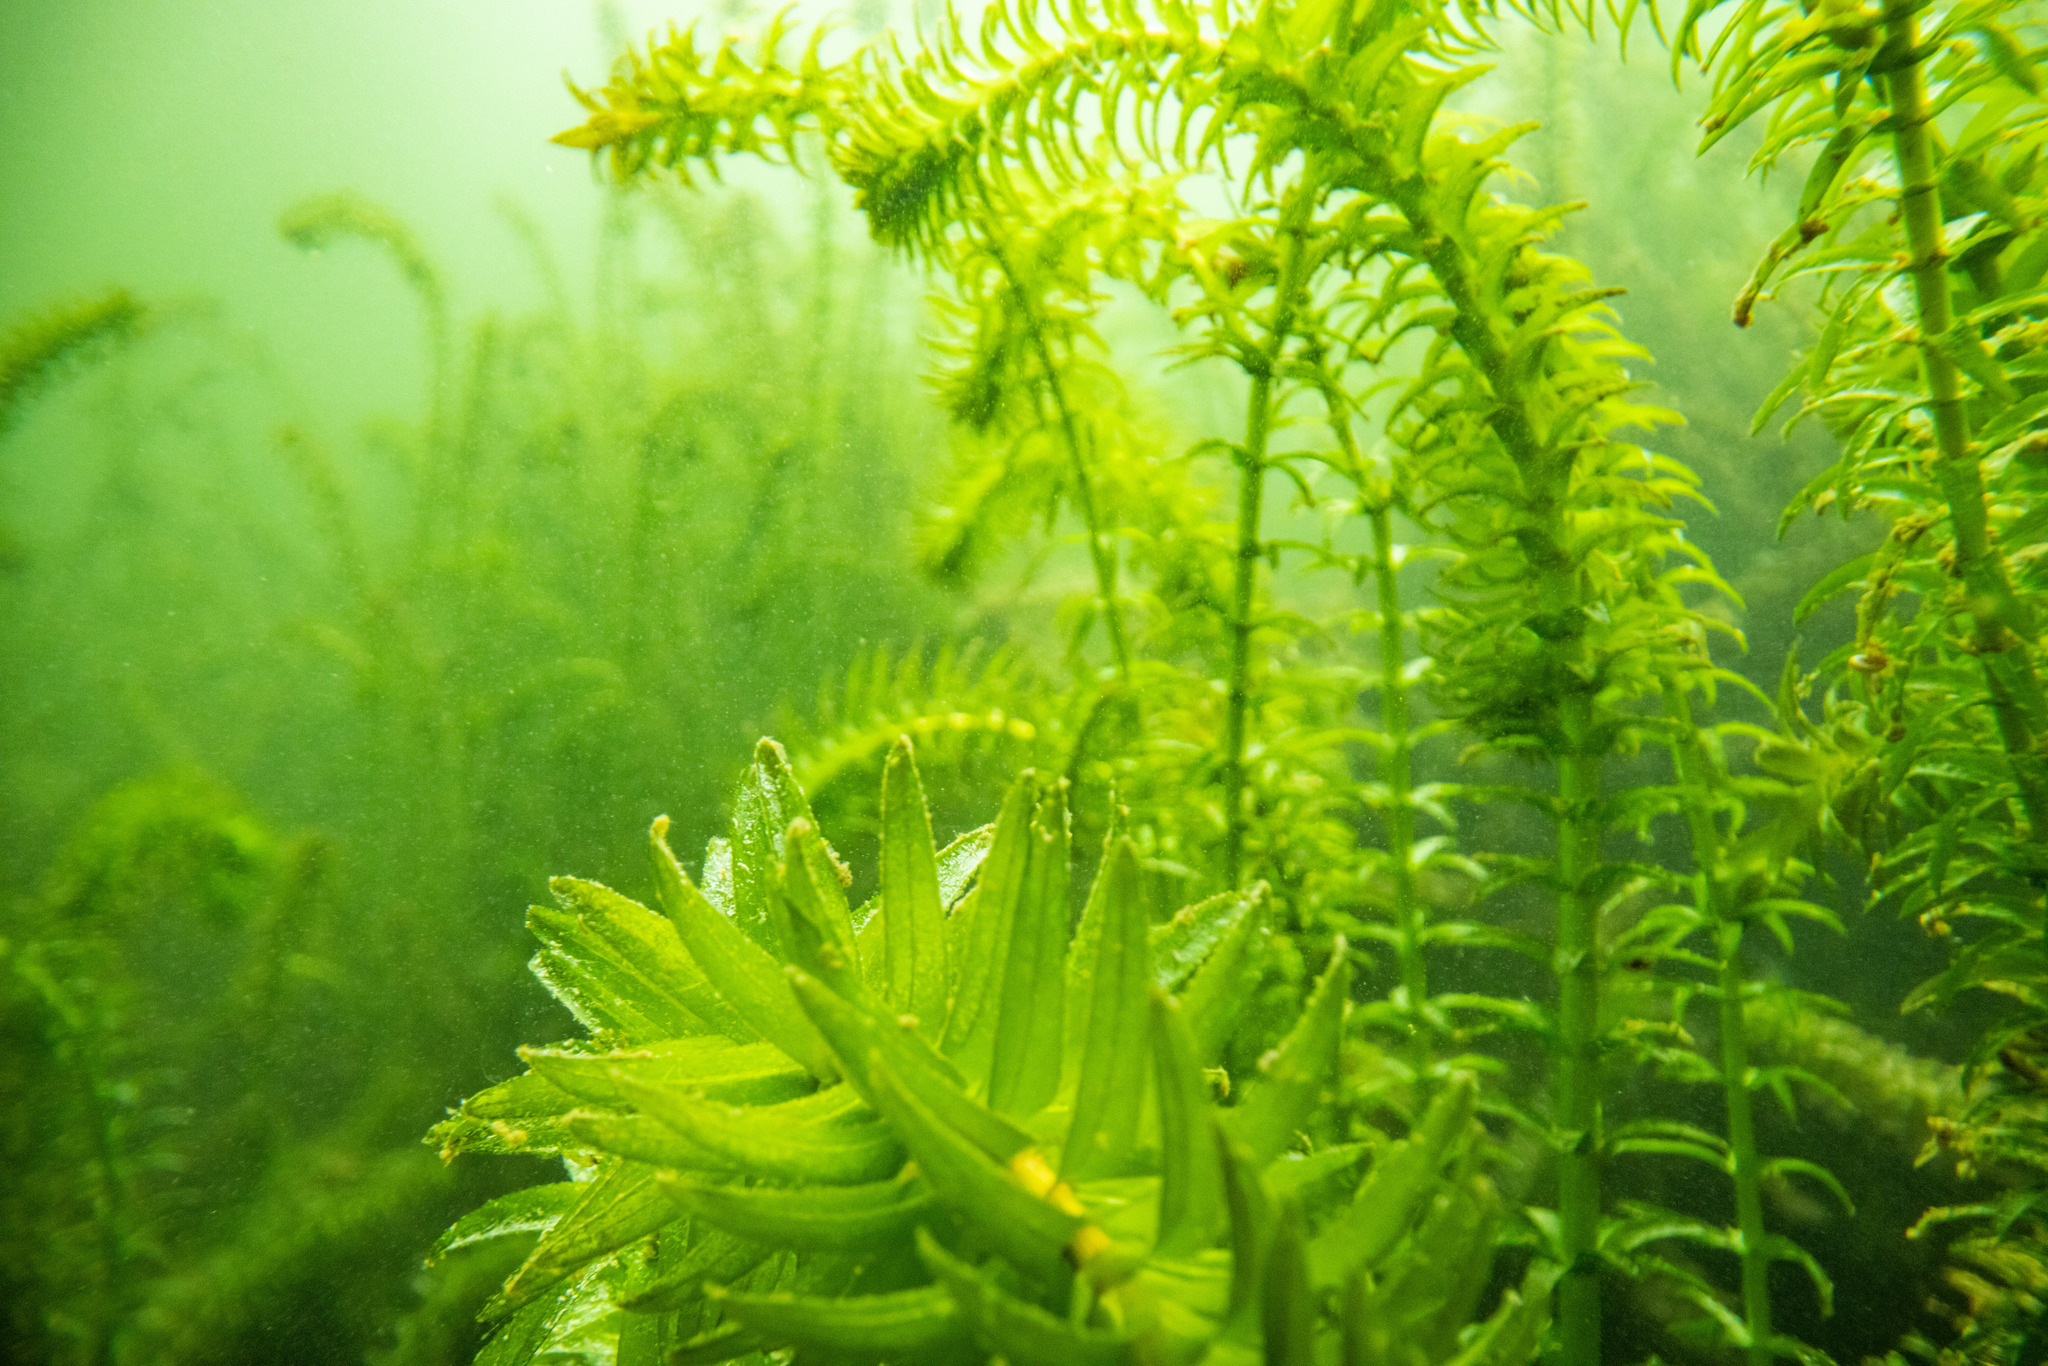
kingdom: Plantae
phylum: Tracheophyta
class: Liliopsida
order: Alismatales
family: Hydrocharitaceae
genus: Elodea
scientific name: Elodea densa
